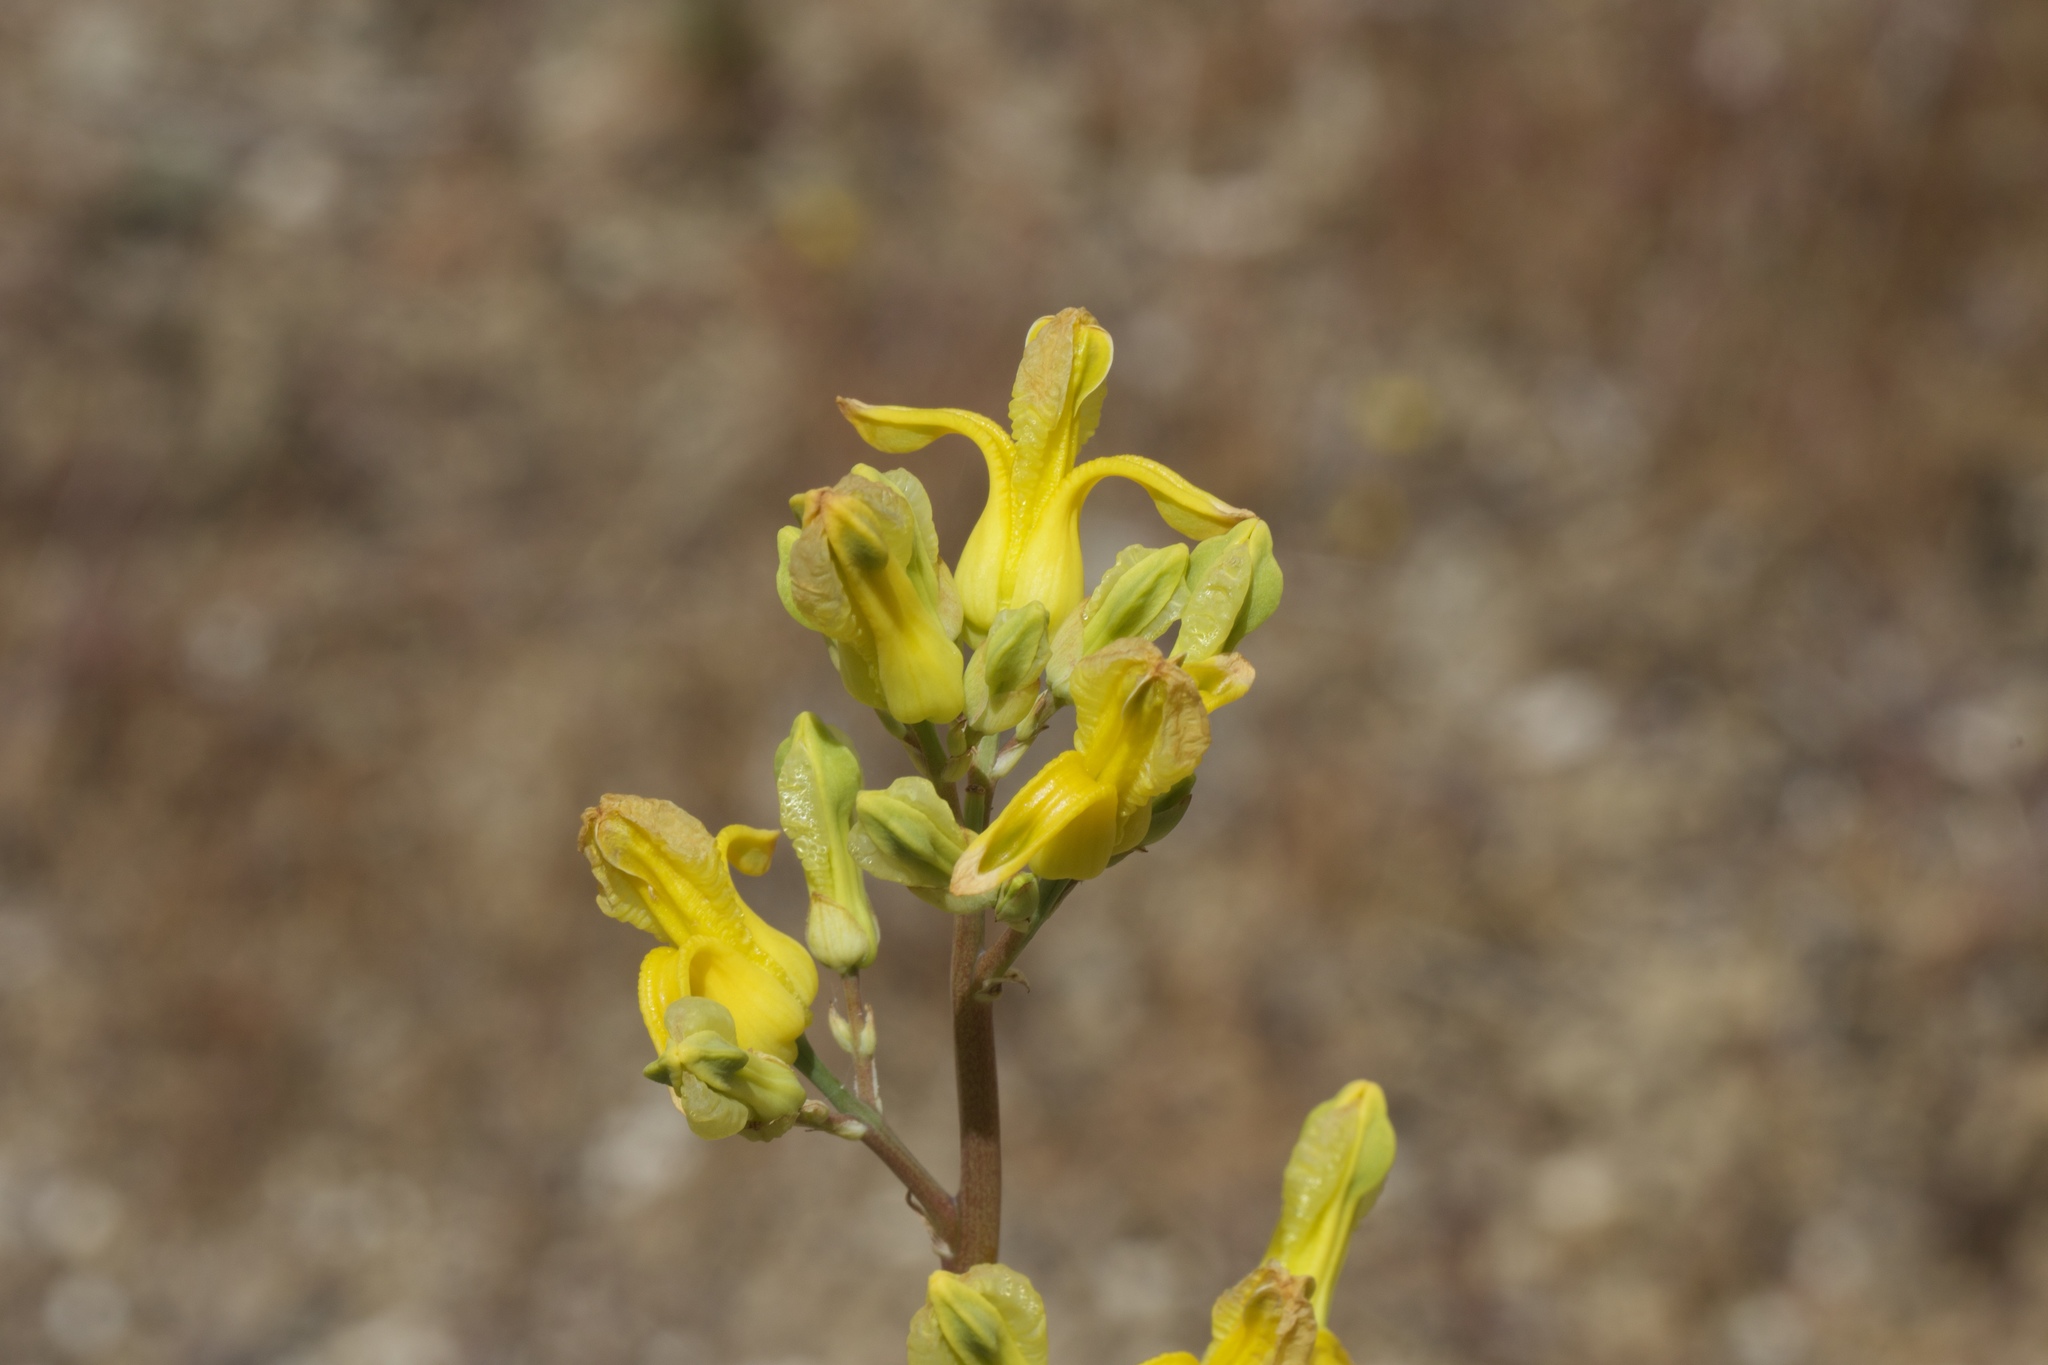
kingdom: Plantae
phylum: Tracheophyta
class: Magnoliopsida
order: Ranunculales
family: Papaveraceae
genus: Ehrendorferia
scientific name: Ehrendorferia chrysantha
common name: Golden eardrops
